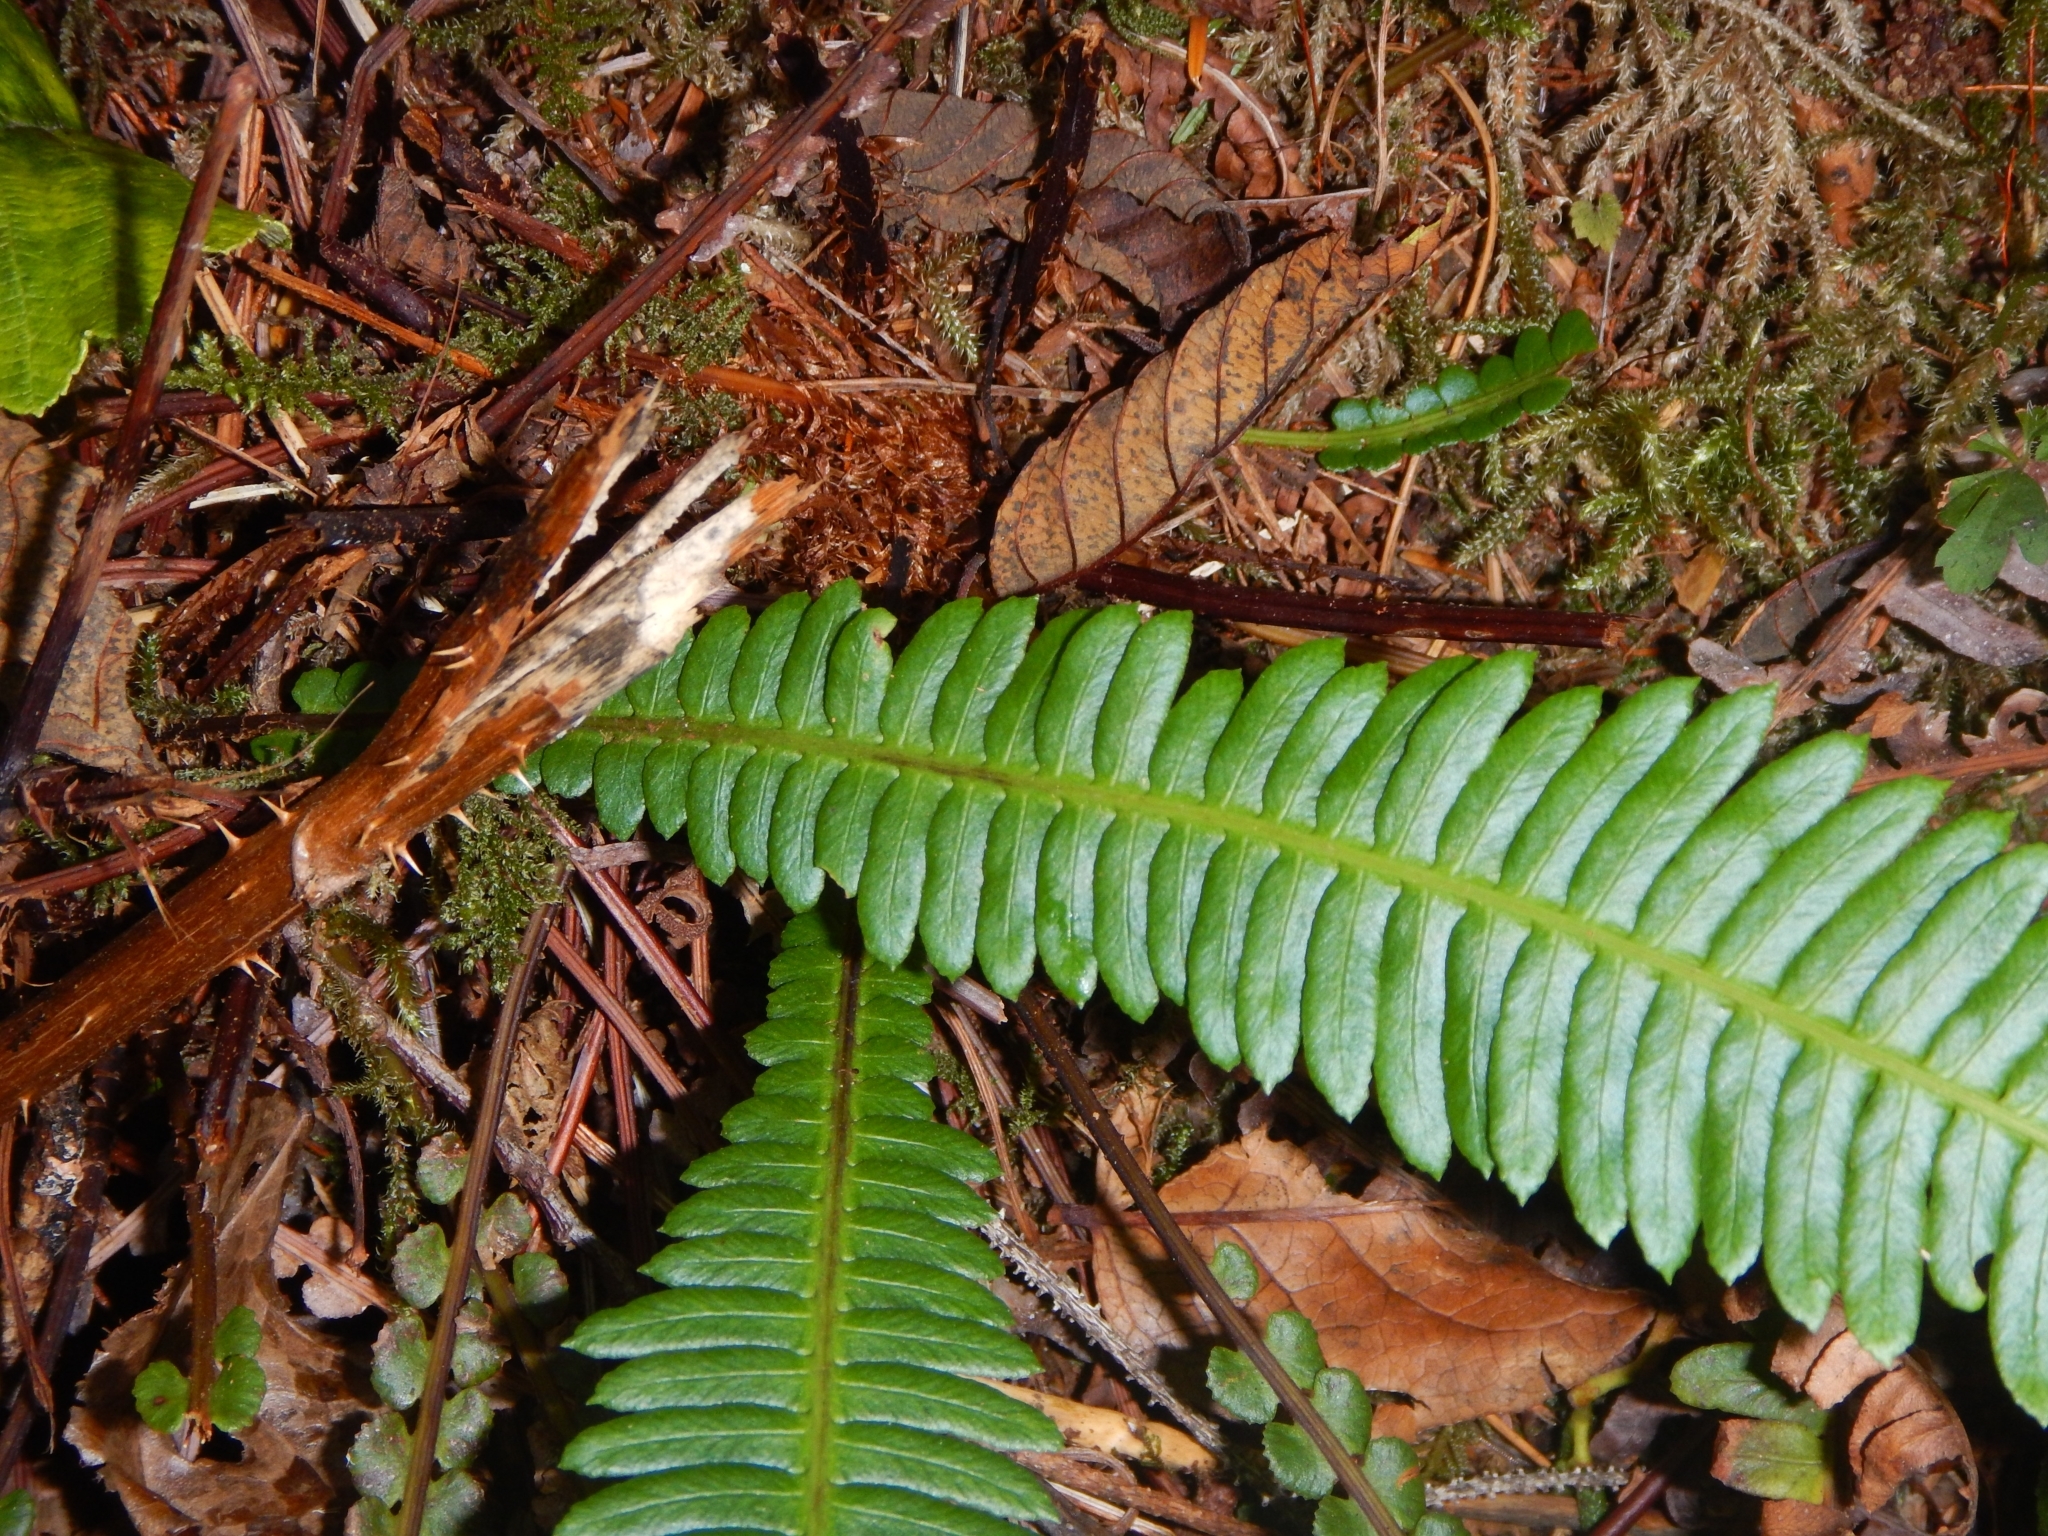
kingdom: Plantae
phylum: Tracheophyta
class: Polypodiopsida
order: Polypodiales
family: Blechnaceae
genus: Struthiopteris
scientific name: Struthiopteris spicant
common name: Deer fern
